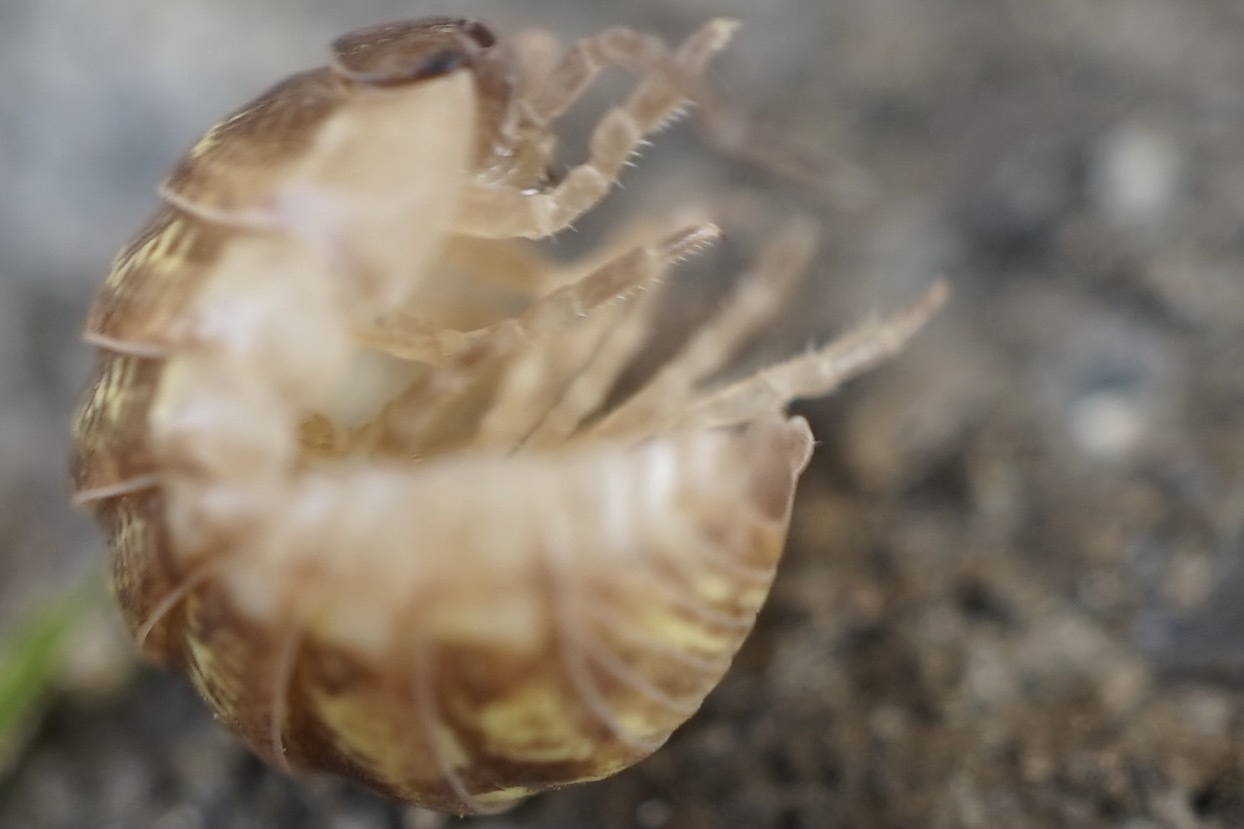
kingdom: Animalia
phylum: Arthropoda
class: Malacostraca
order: Isopoda
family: Armadillidiidae
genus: Armadillidium
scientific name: Armadillidium vulgare
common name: Common pill woodlouse
